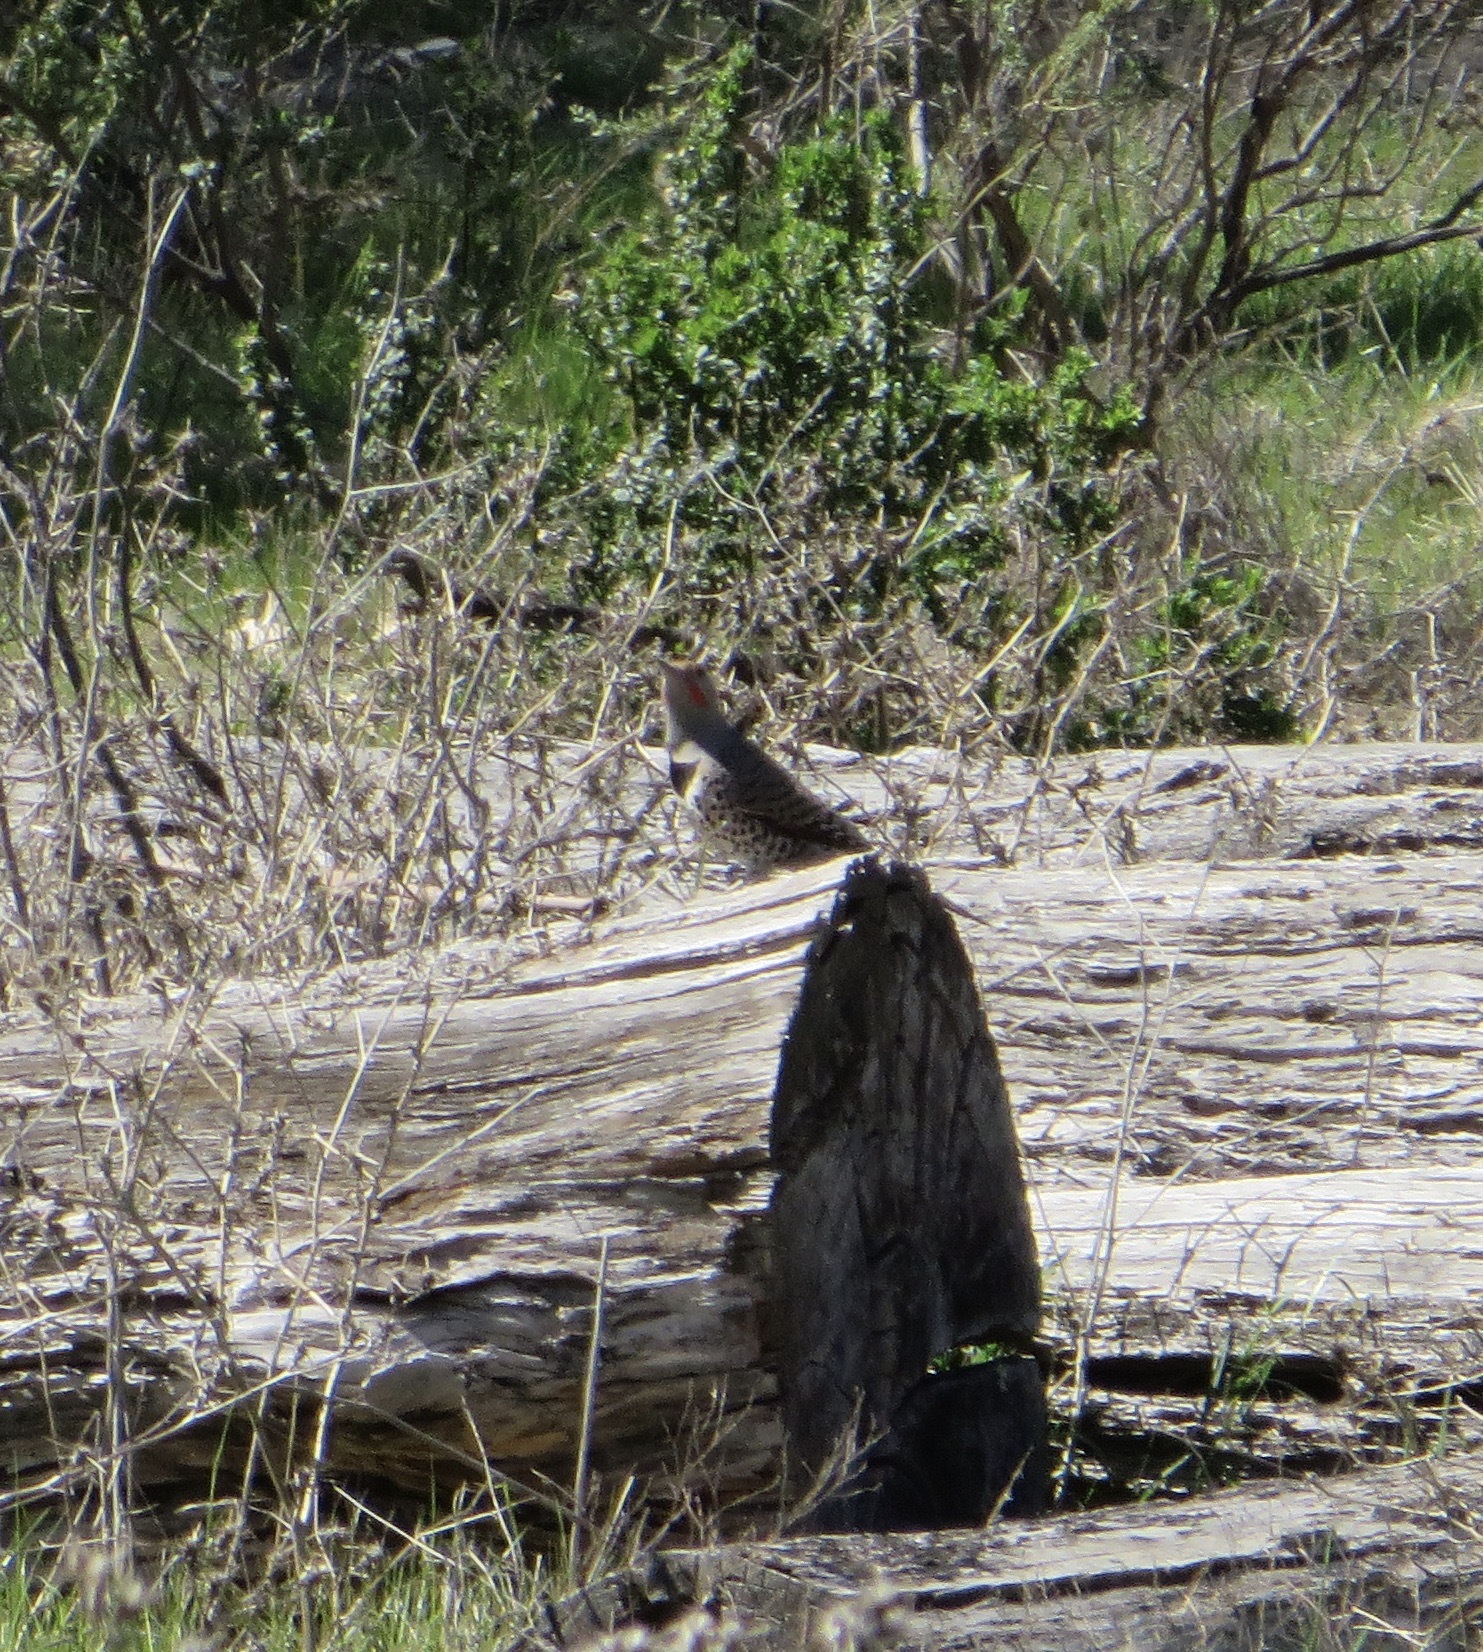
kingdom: Animalia
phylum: Chordata
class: Aves
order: Piciformes
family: Picidae
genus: Colaptes
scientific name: Colaptes auratus
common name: Northern flicker
